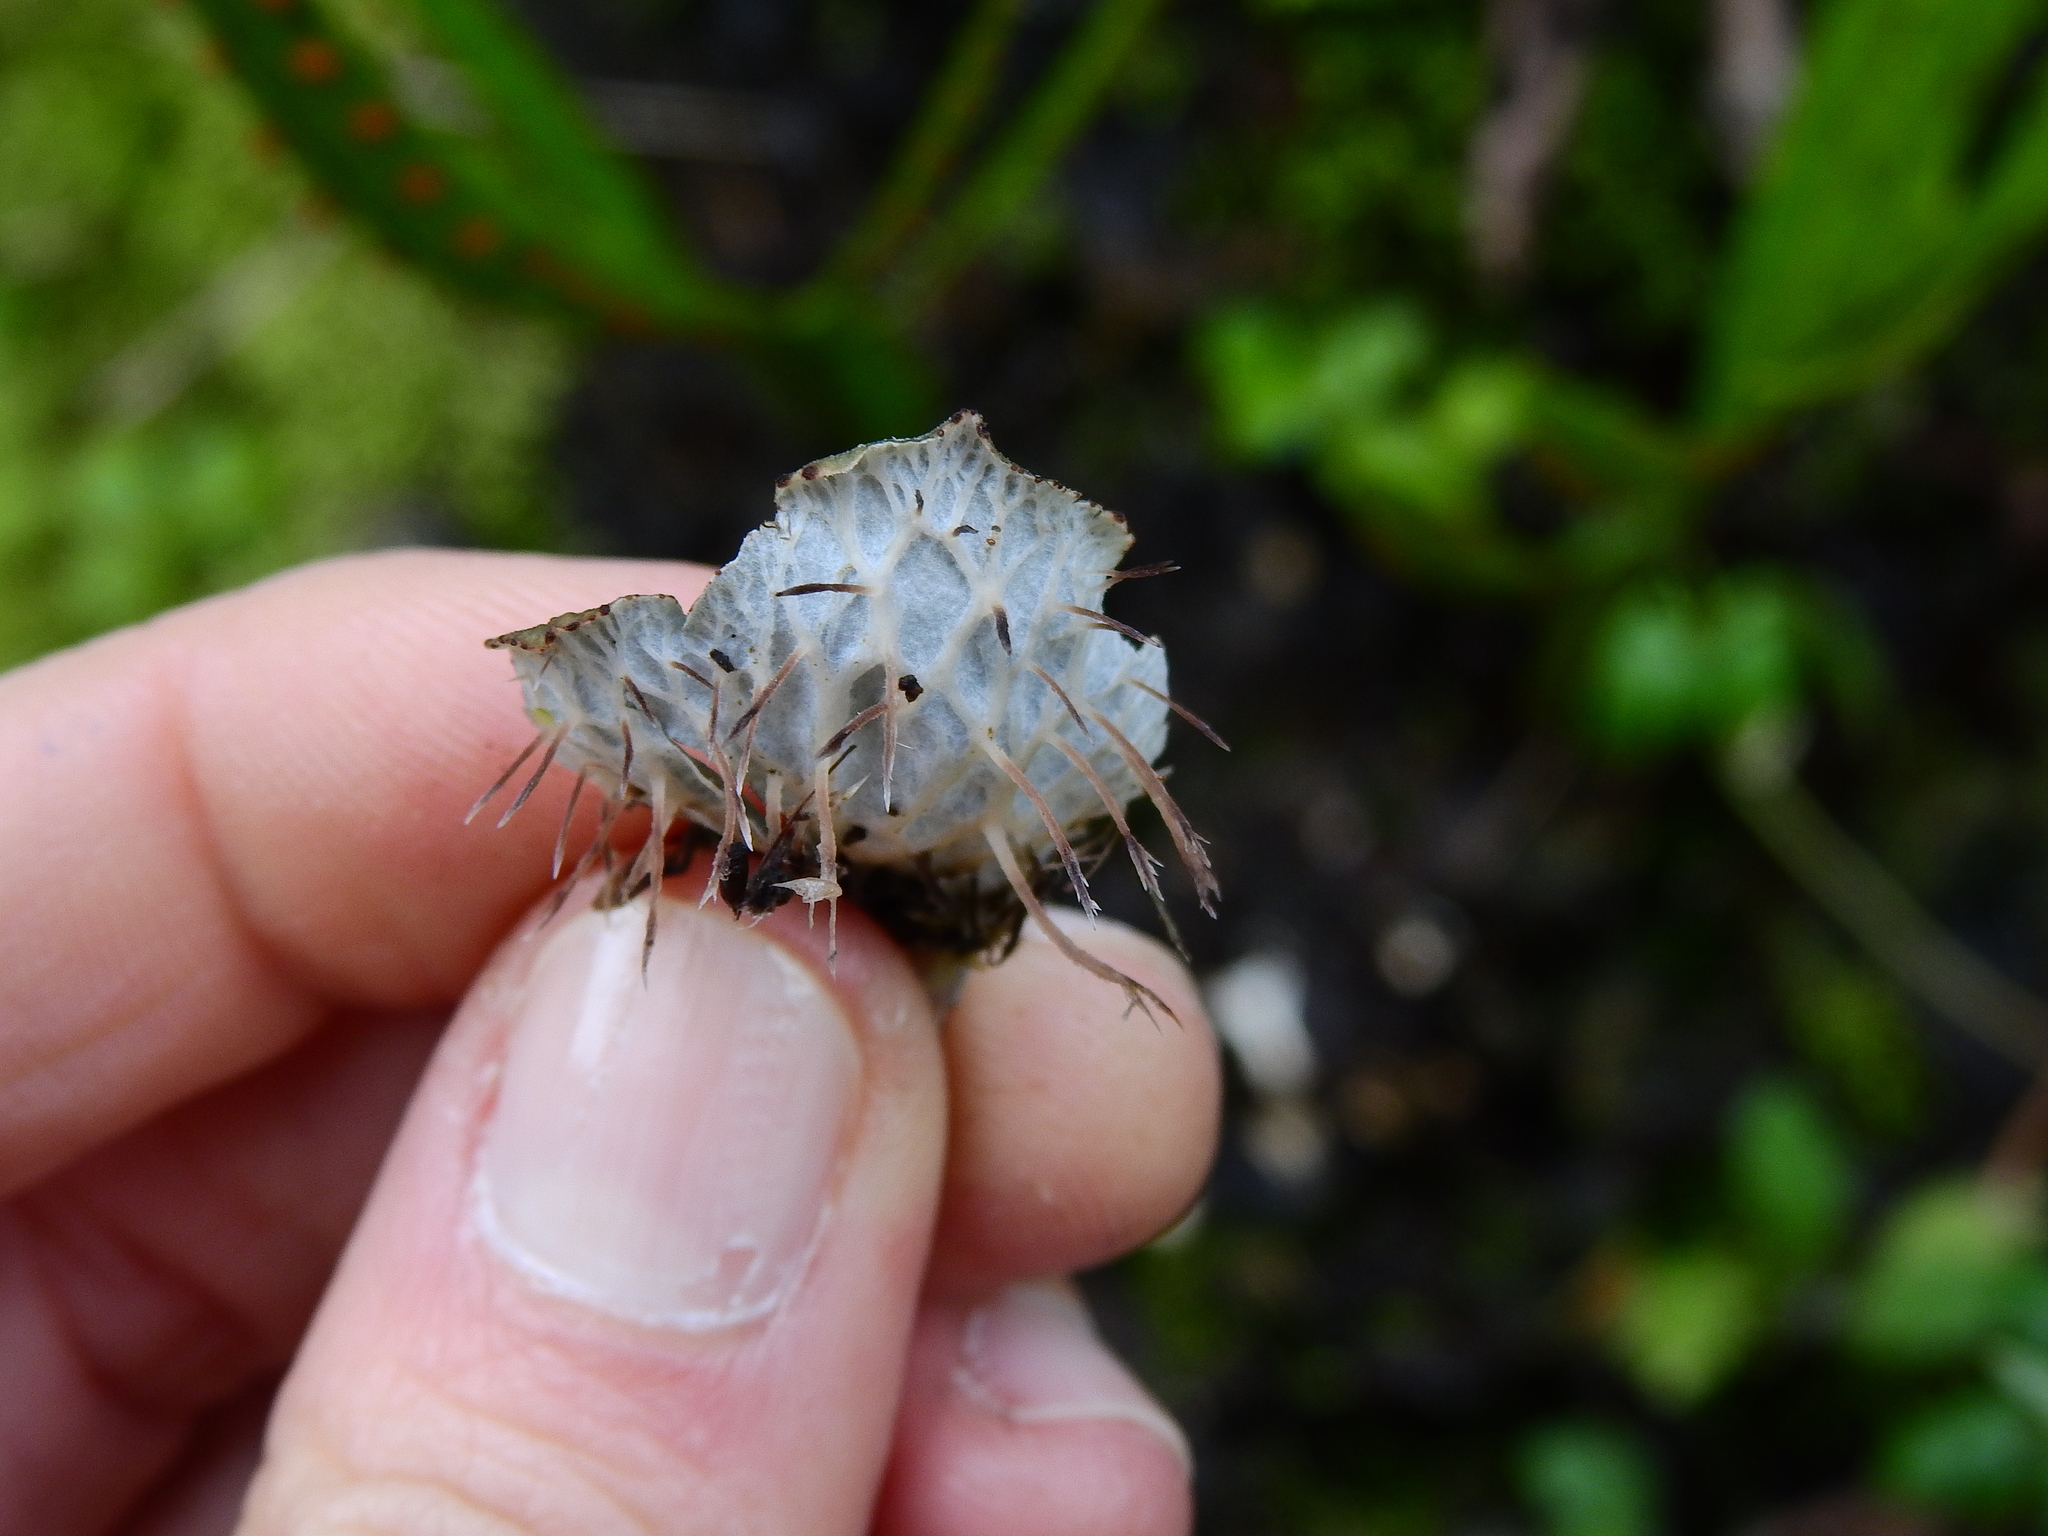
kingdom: Fungi
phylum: Ascomycota
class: Lecanoromycetes
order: Peltigerales
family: Peltigeraceae
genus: Peltigera
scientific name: Peltigera dolichorhiza
